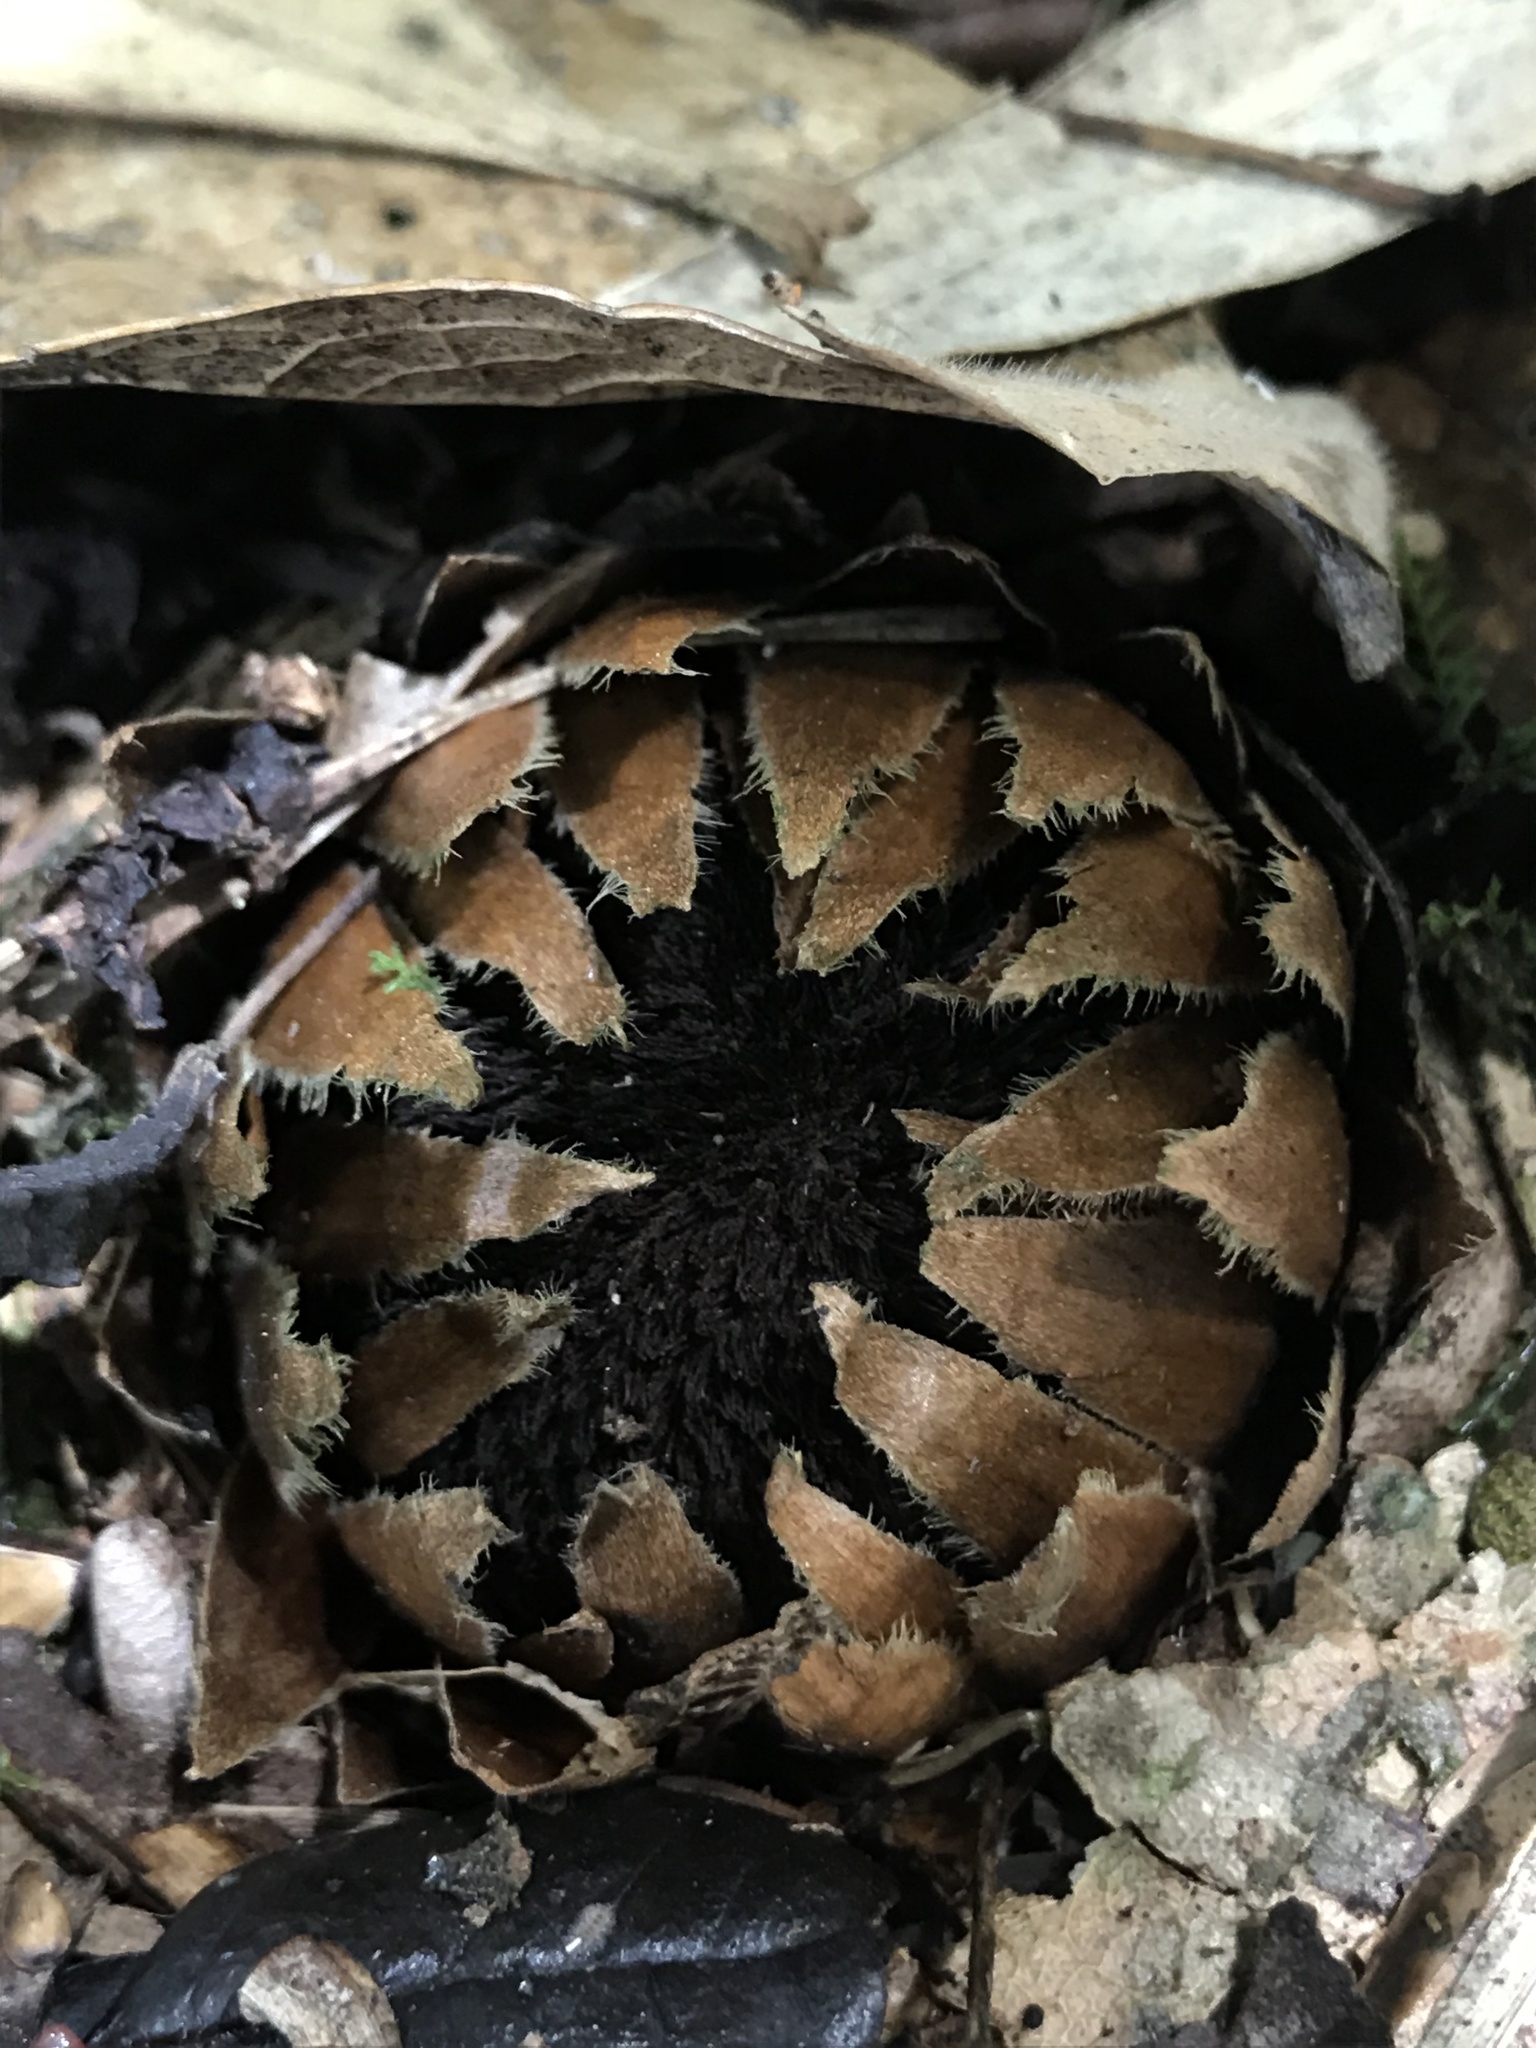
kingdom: Plantae
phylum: Tracheophyta
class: Magnoliopsida
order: Santalales
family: Balanophoraceae
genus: Langsdorffia
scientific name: Langsdorffia hypogaea
